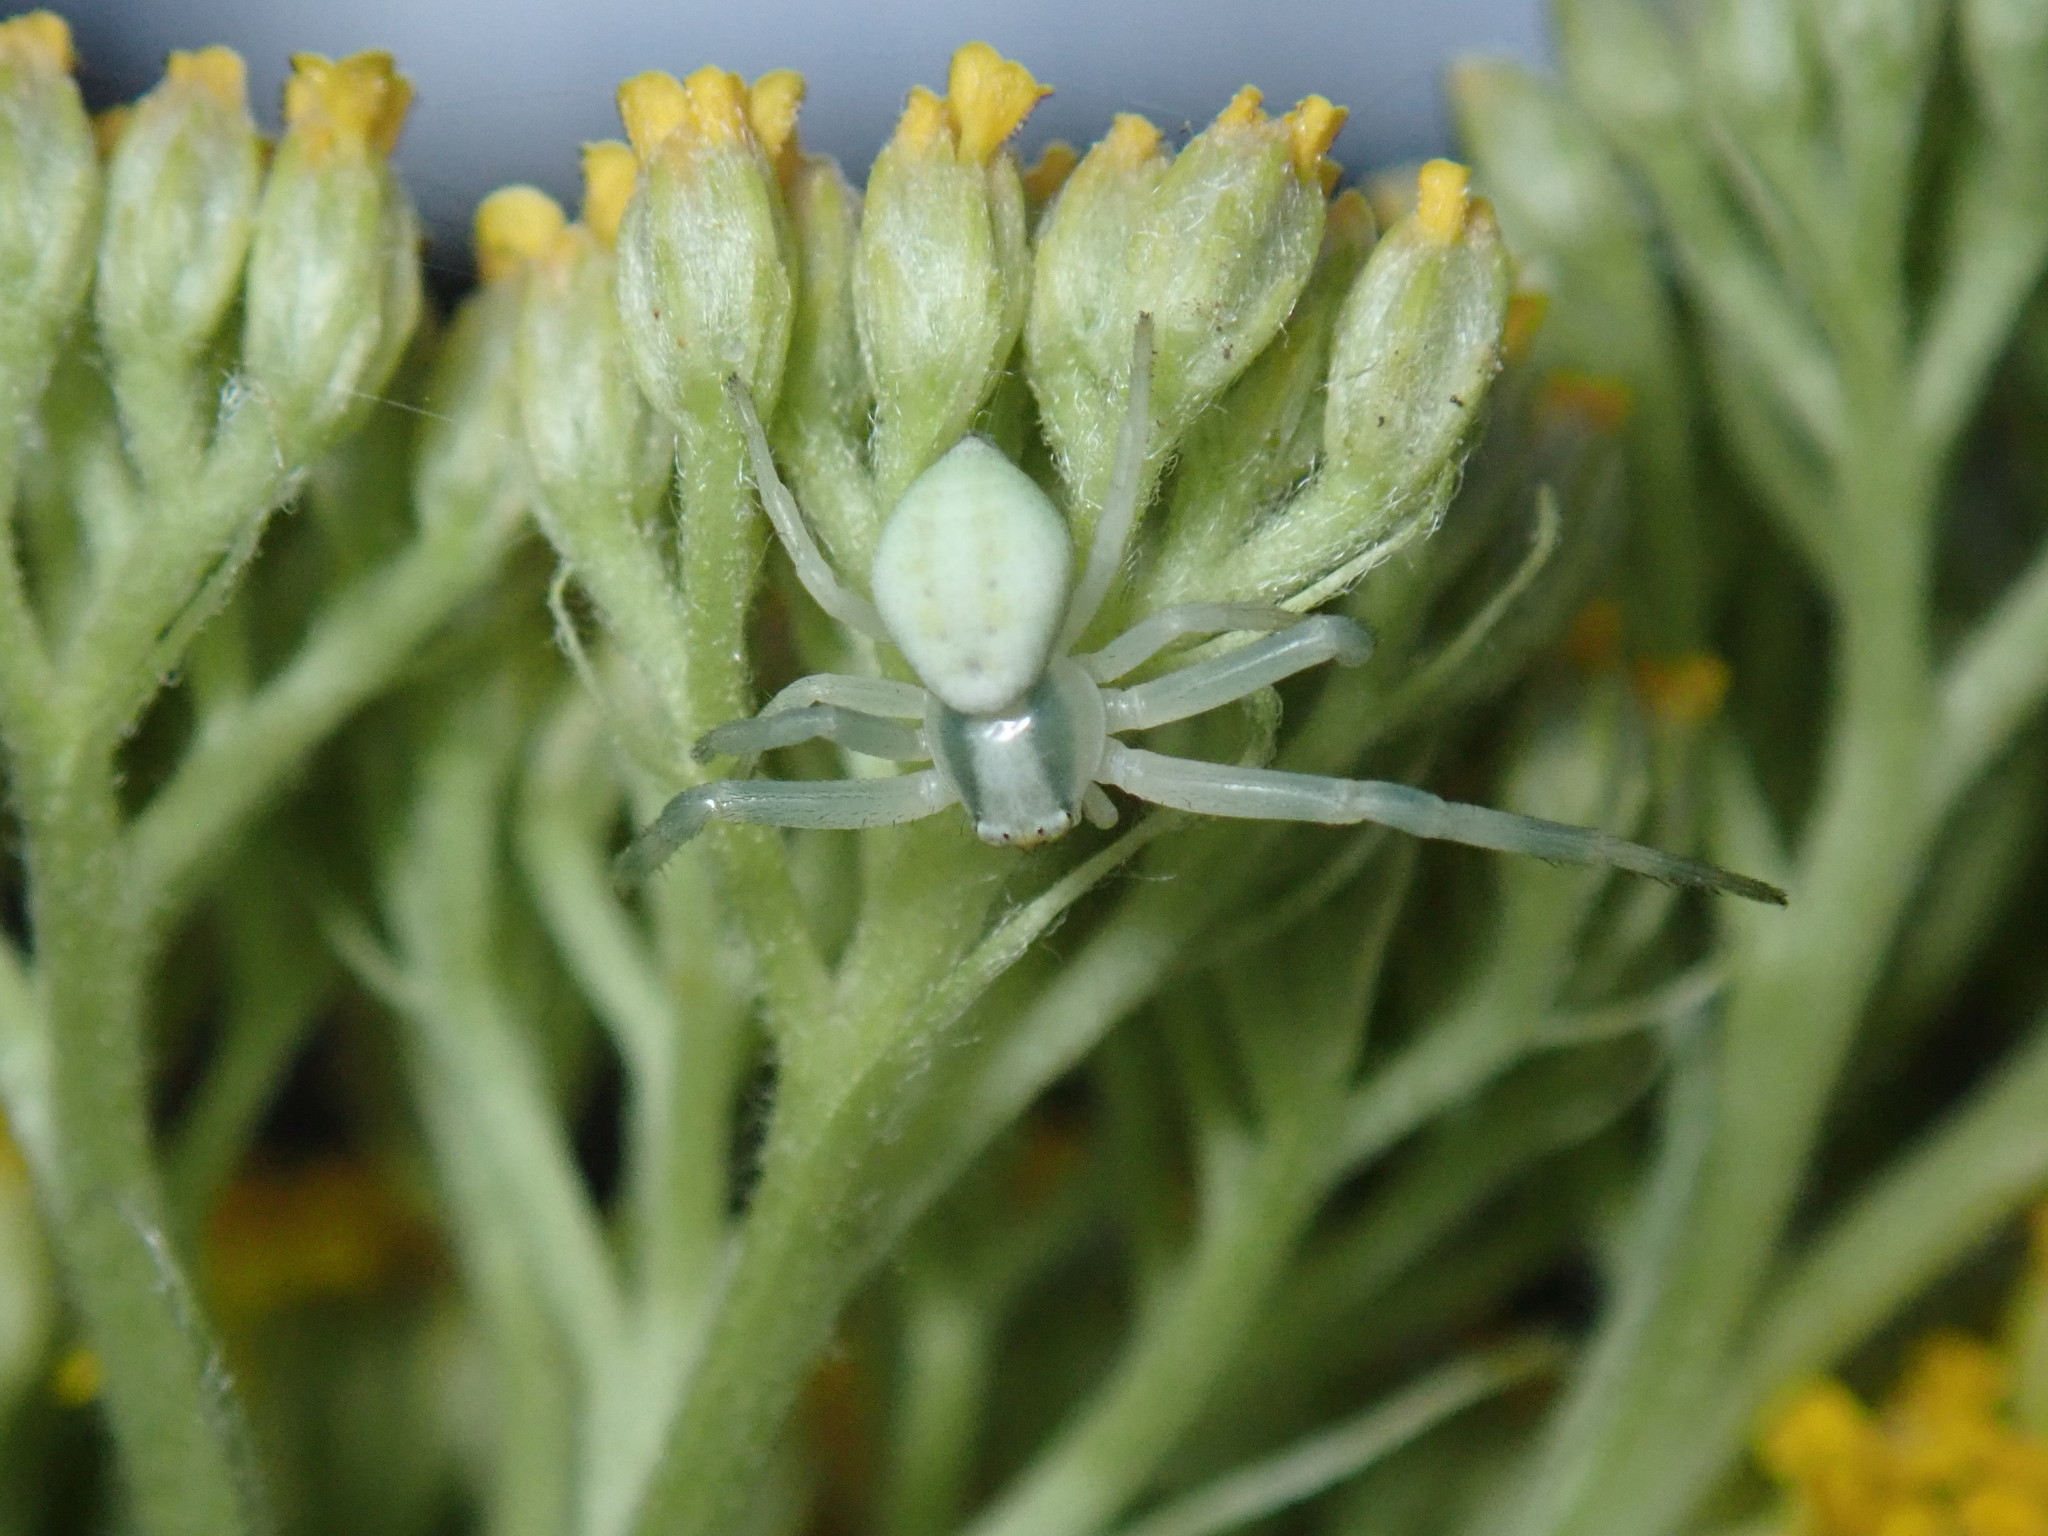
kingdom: Animalia
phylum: Arthropoda
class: Arachnida
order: Araneae
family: Thomisidae
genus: Misumena
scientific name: Misumena vatia
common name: Goldenrod crab spider
